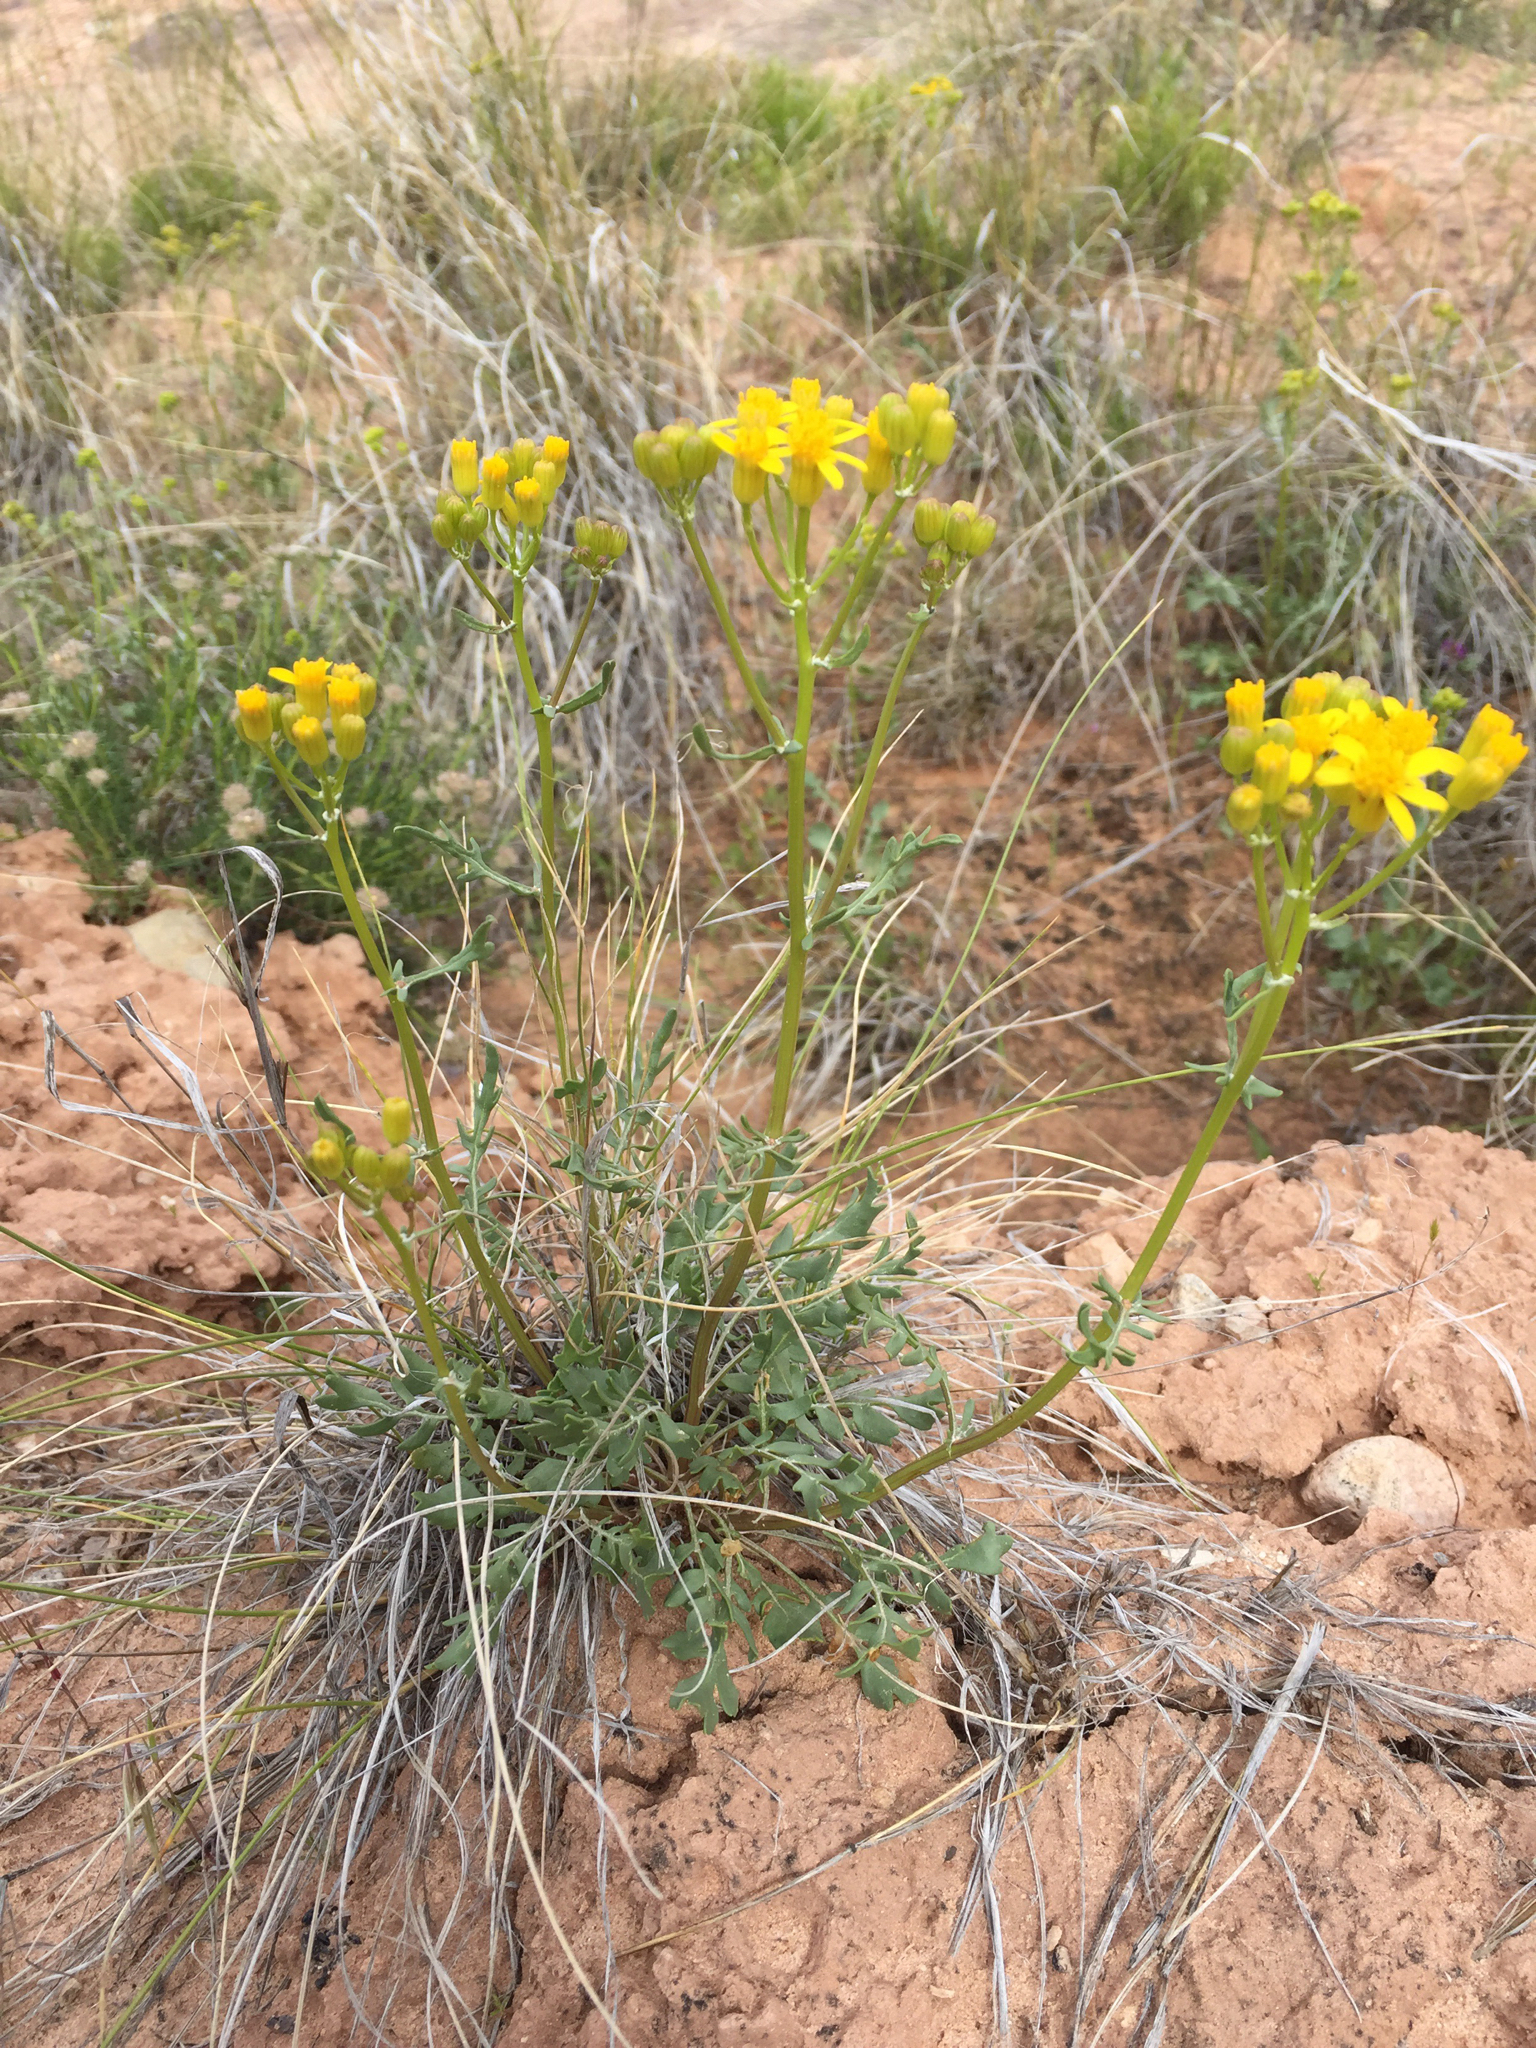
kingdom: Plantae
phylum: Tracheophyta
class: Magnoliopsida
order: Asterales
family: Asteraceae
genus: Packera
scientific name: Packera multilobata
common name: Lobe-leaf groundsel
